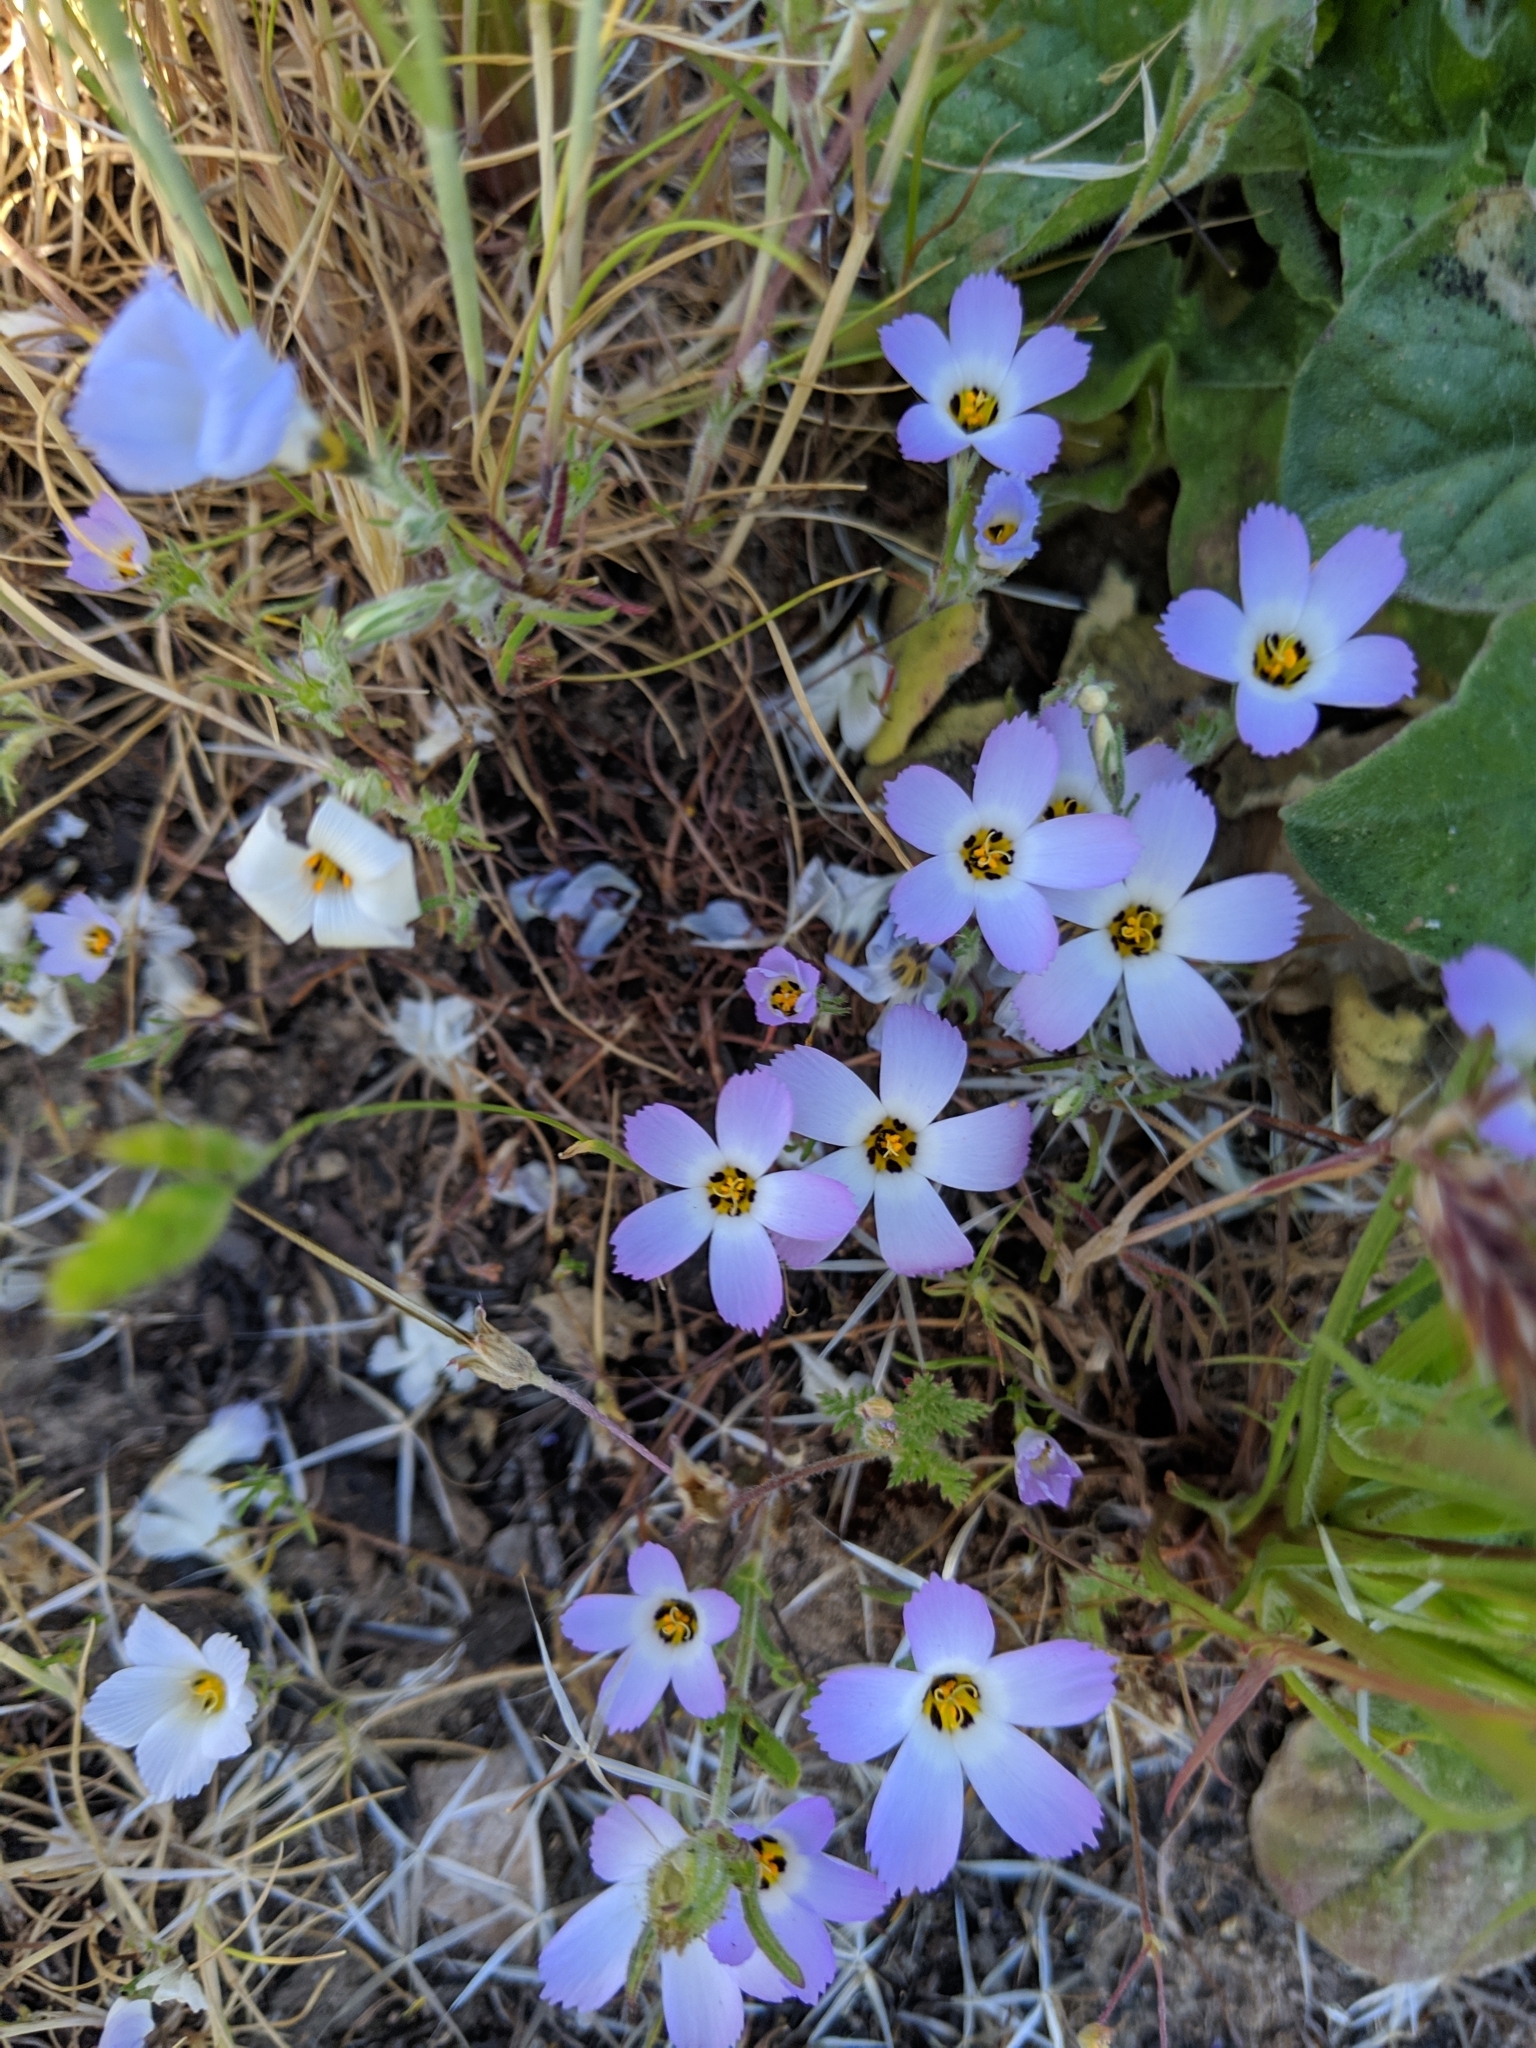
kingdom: Plantae
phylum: Tracheophyta
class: Magnoliopsida
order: Ericales
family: Polemoniaceae
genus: Linanthus
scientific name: Linanthus dianthiflorus
